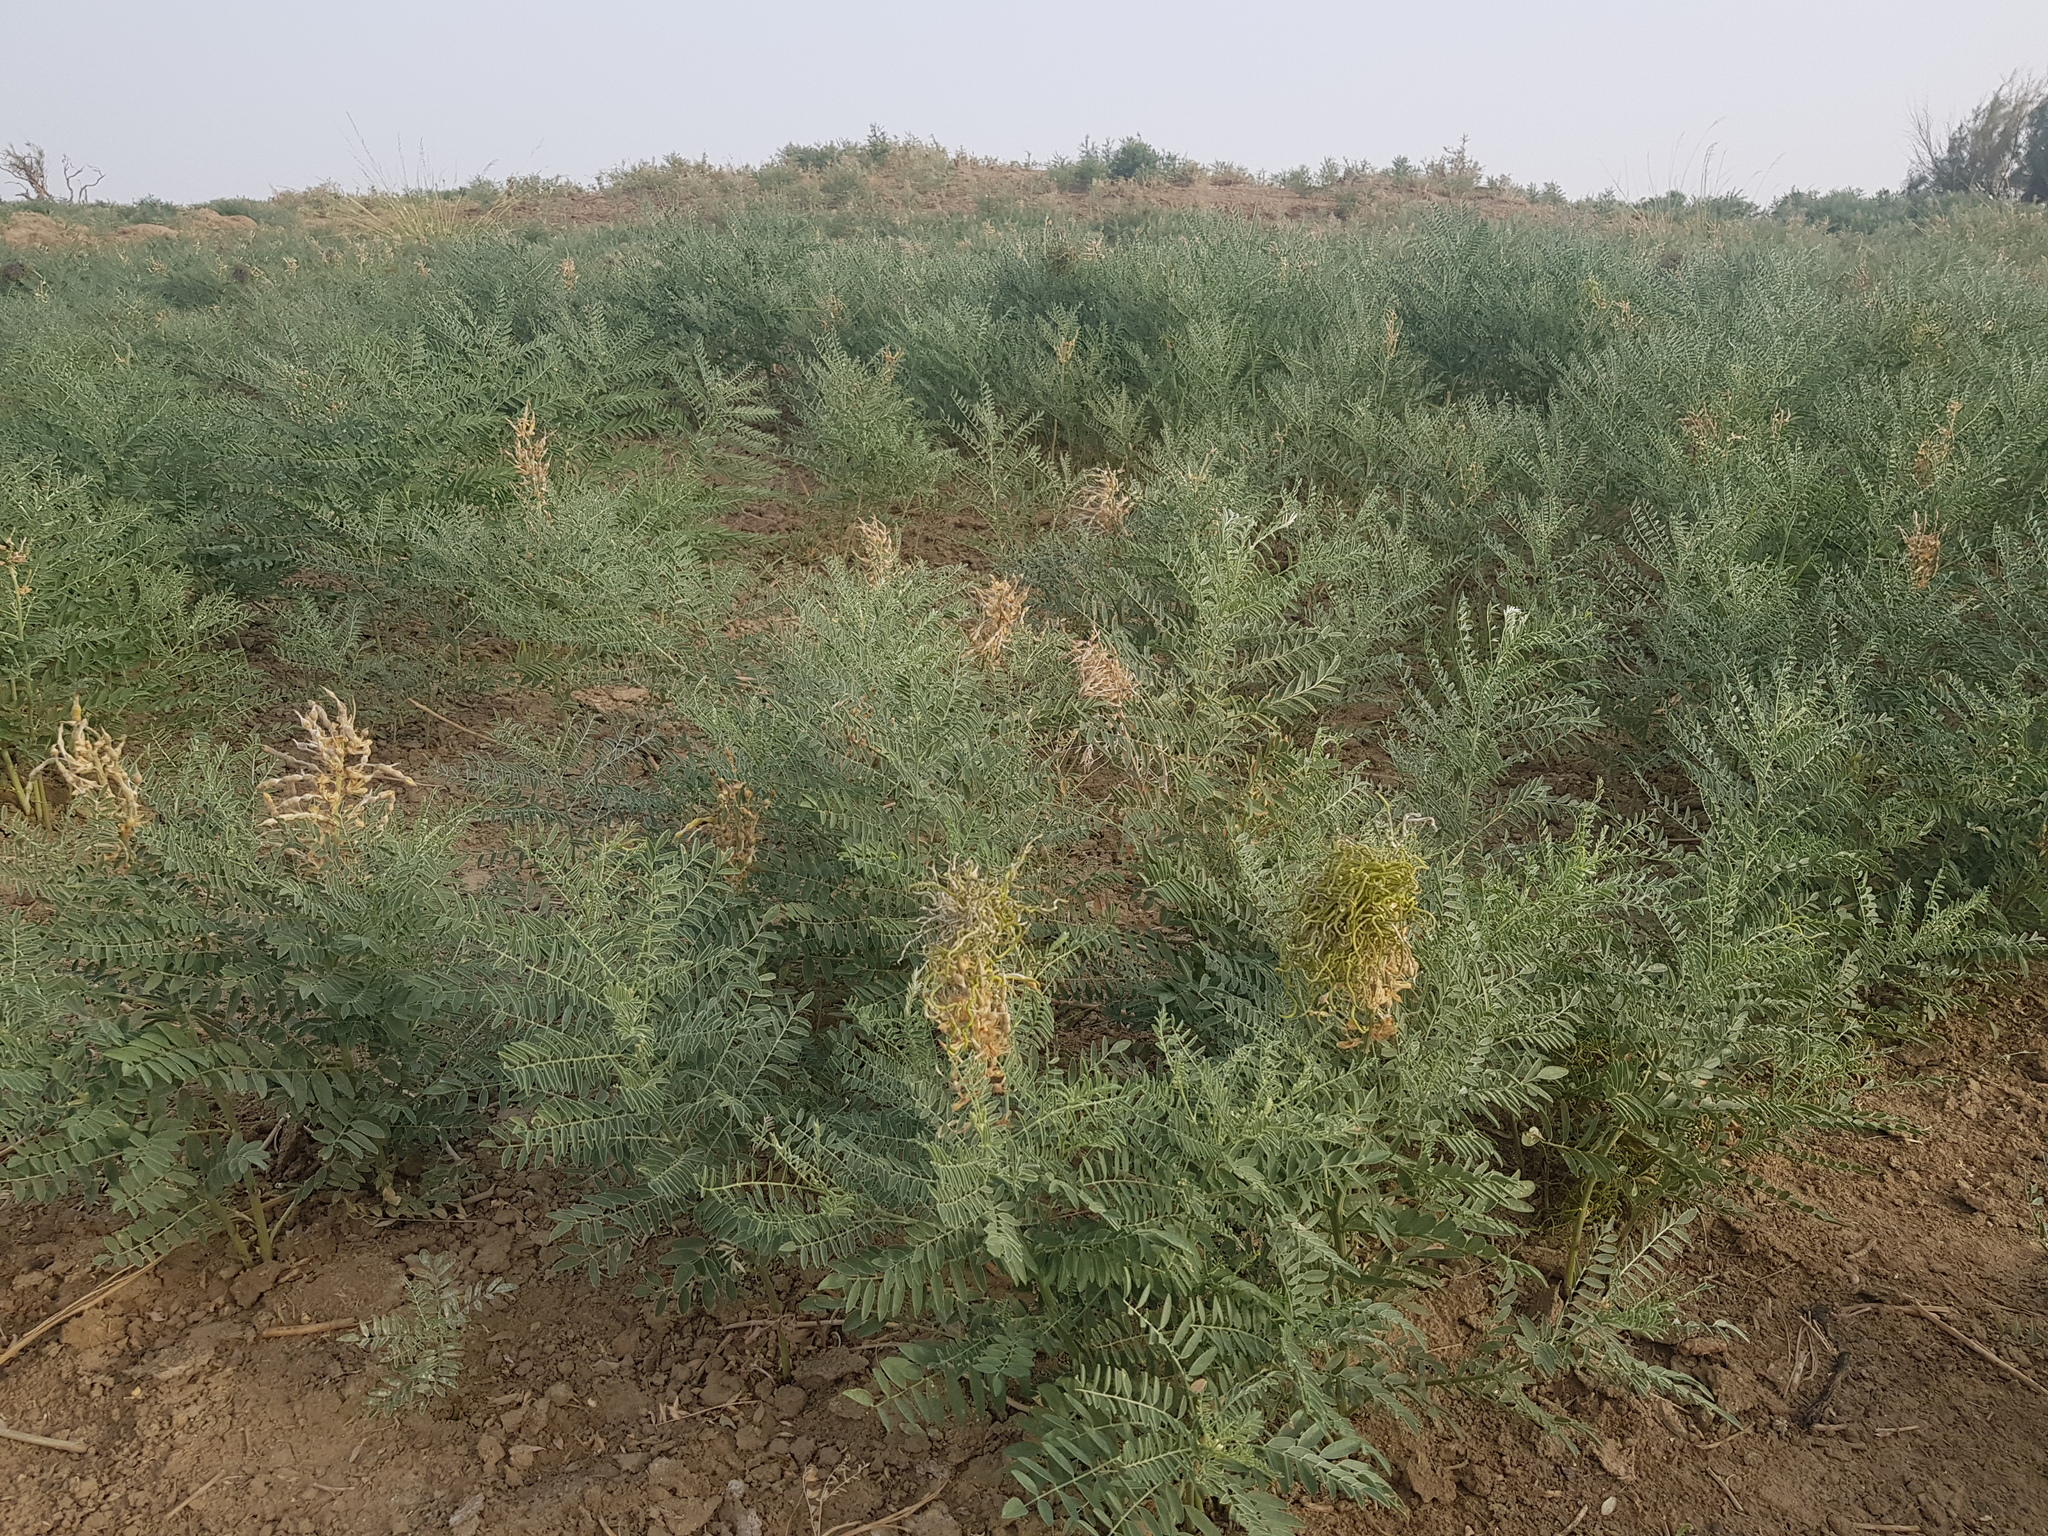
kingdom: Plantae
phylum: Tracheophyta
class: Magnoliopsida
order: Fabales
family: Fabaceae
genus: Sophora
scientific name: Sophora alopecuroides
